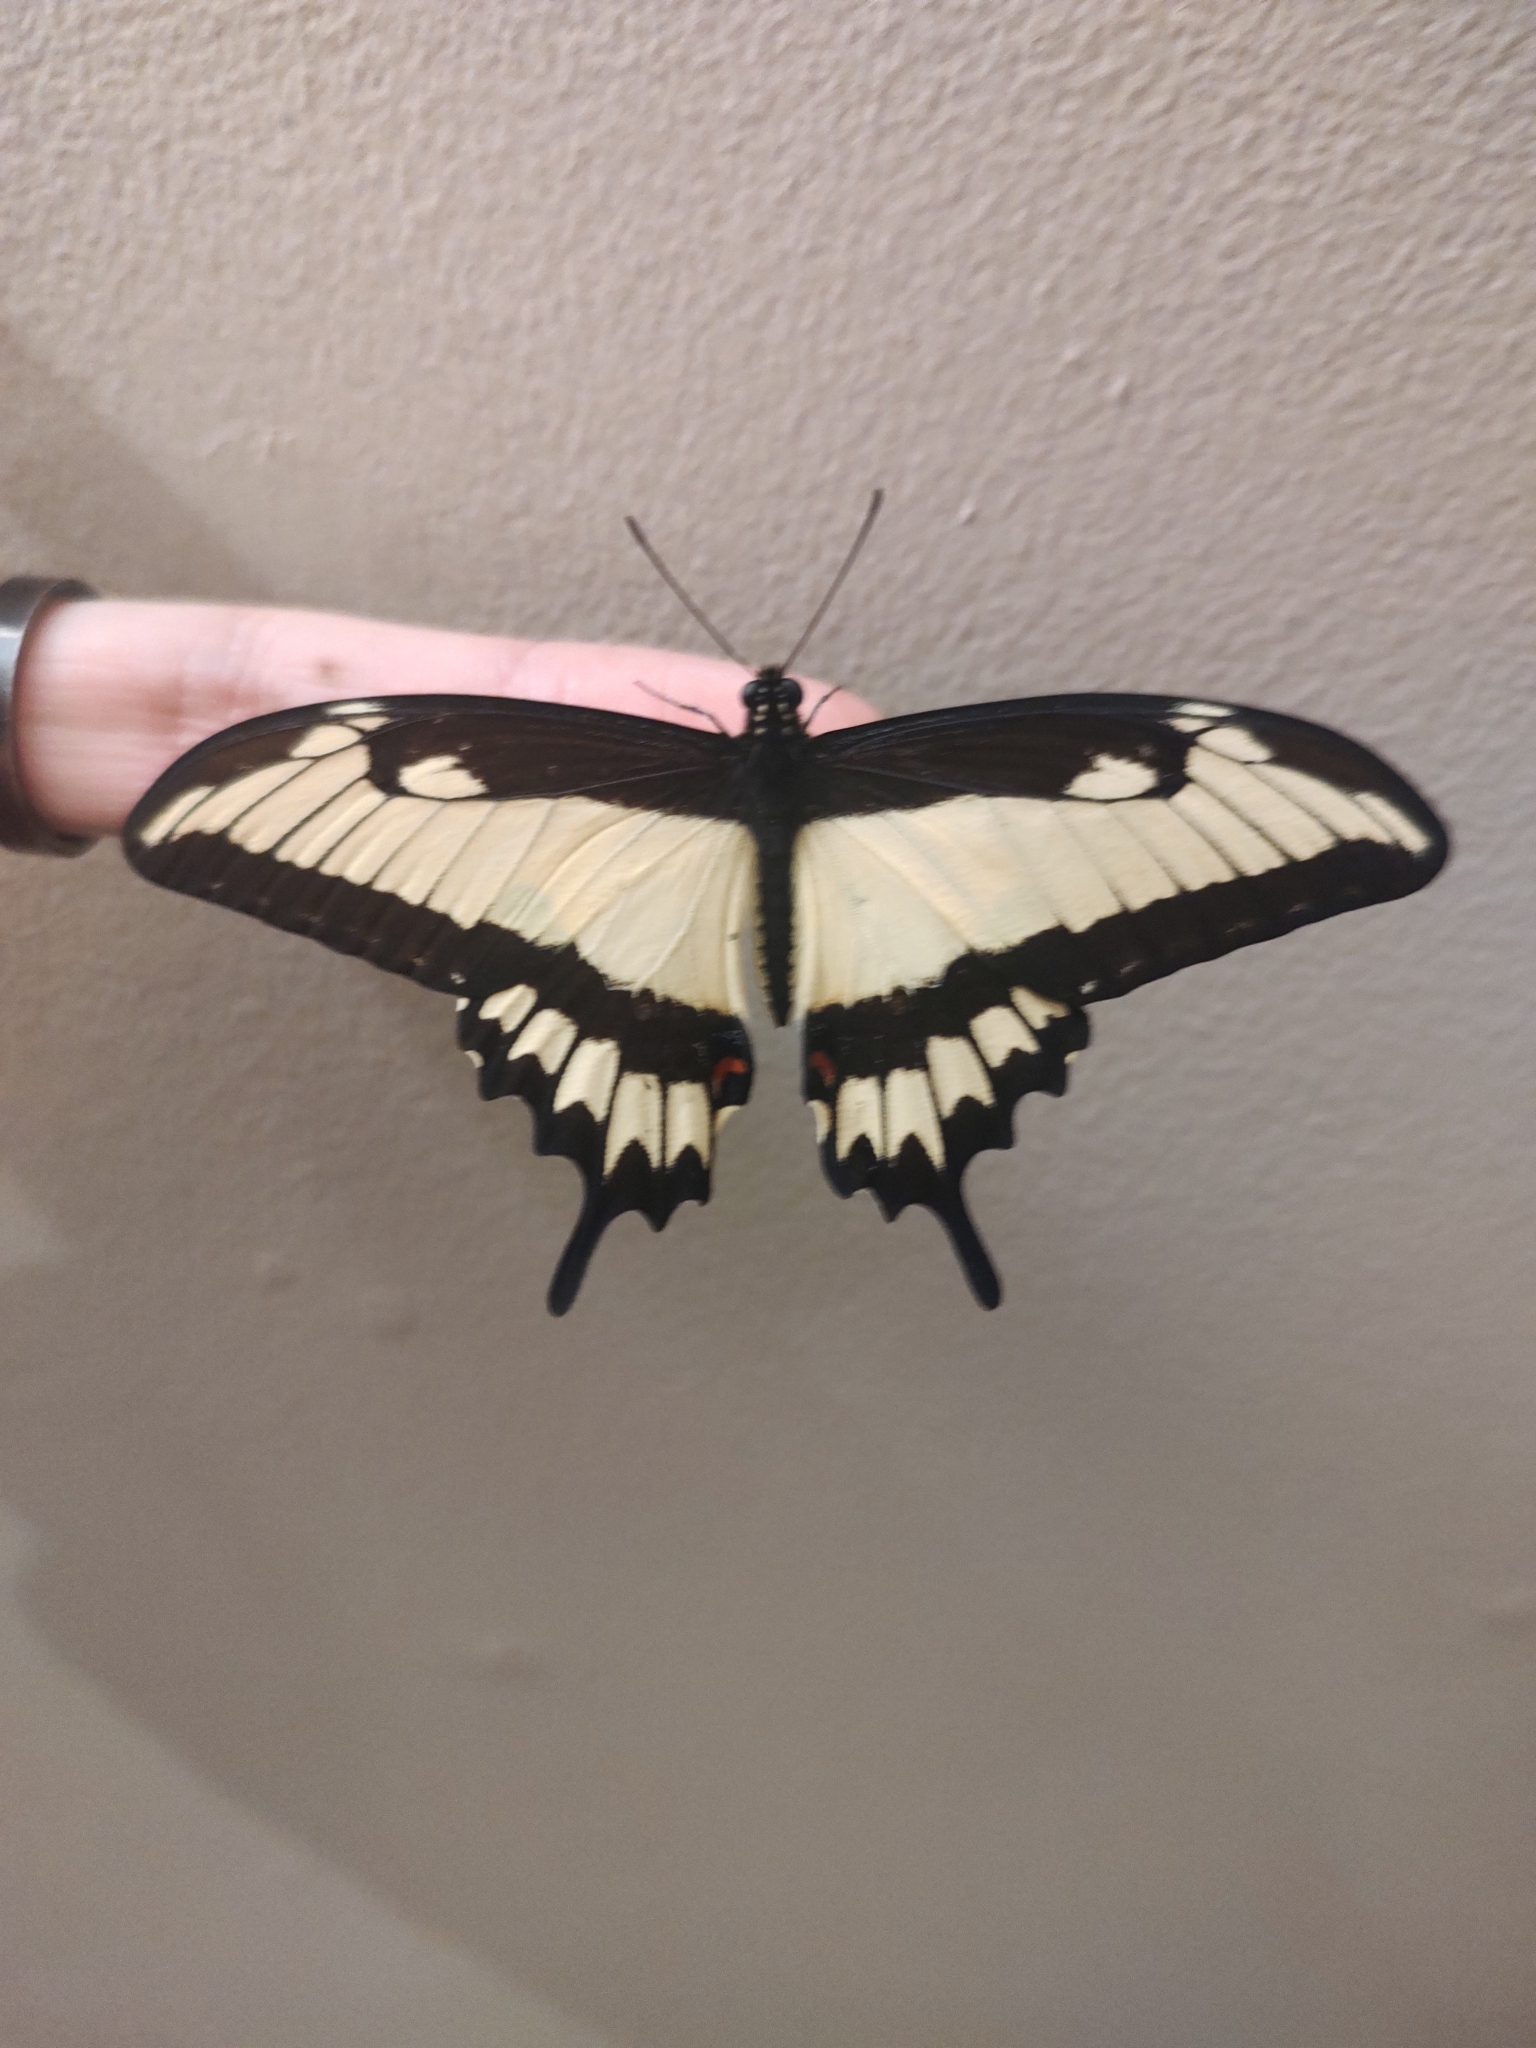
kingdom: Animalia
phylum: Arthropoda
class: Insecta
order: Lepidoptera
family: Papilionidae
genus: Papilio
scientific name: Papilio astyalus
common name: Astyalus swallowtail
